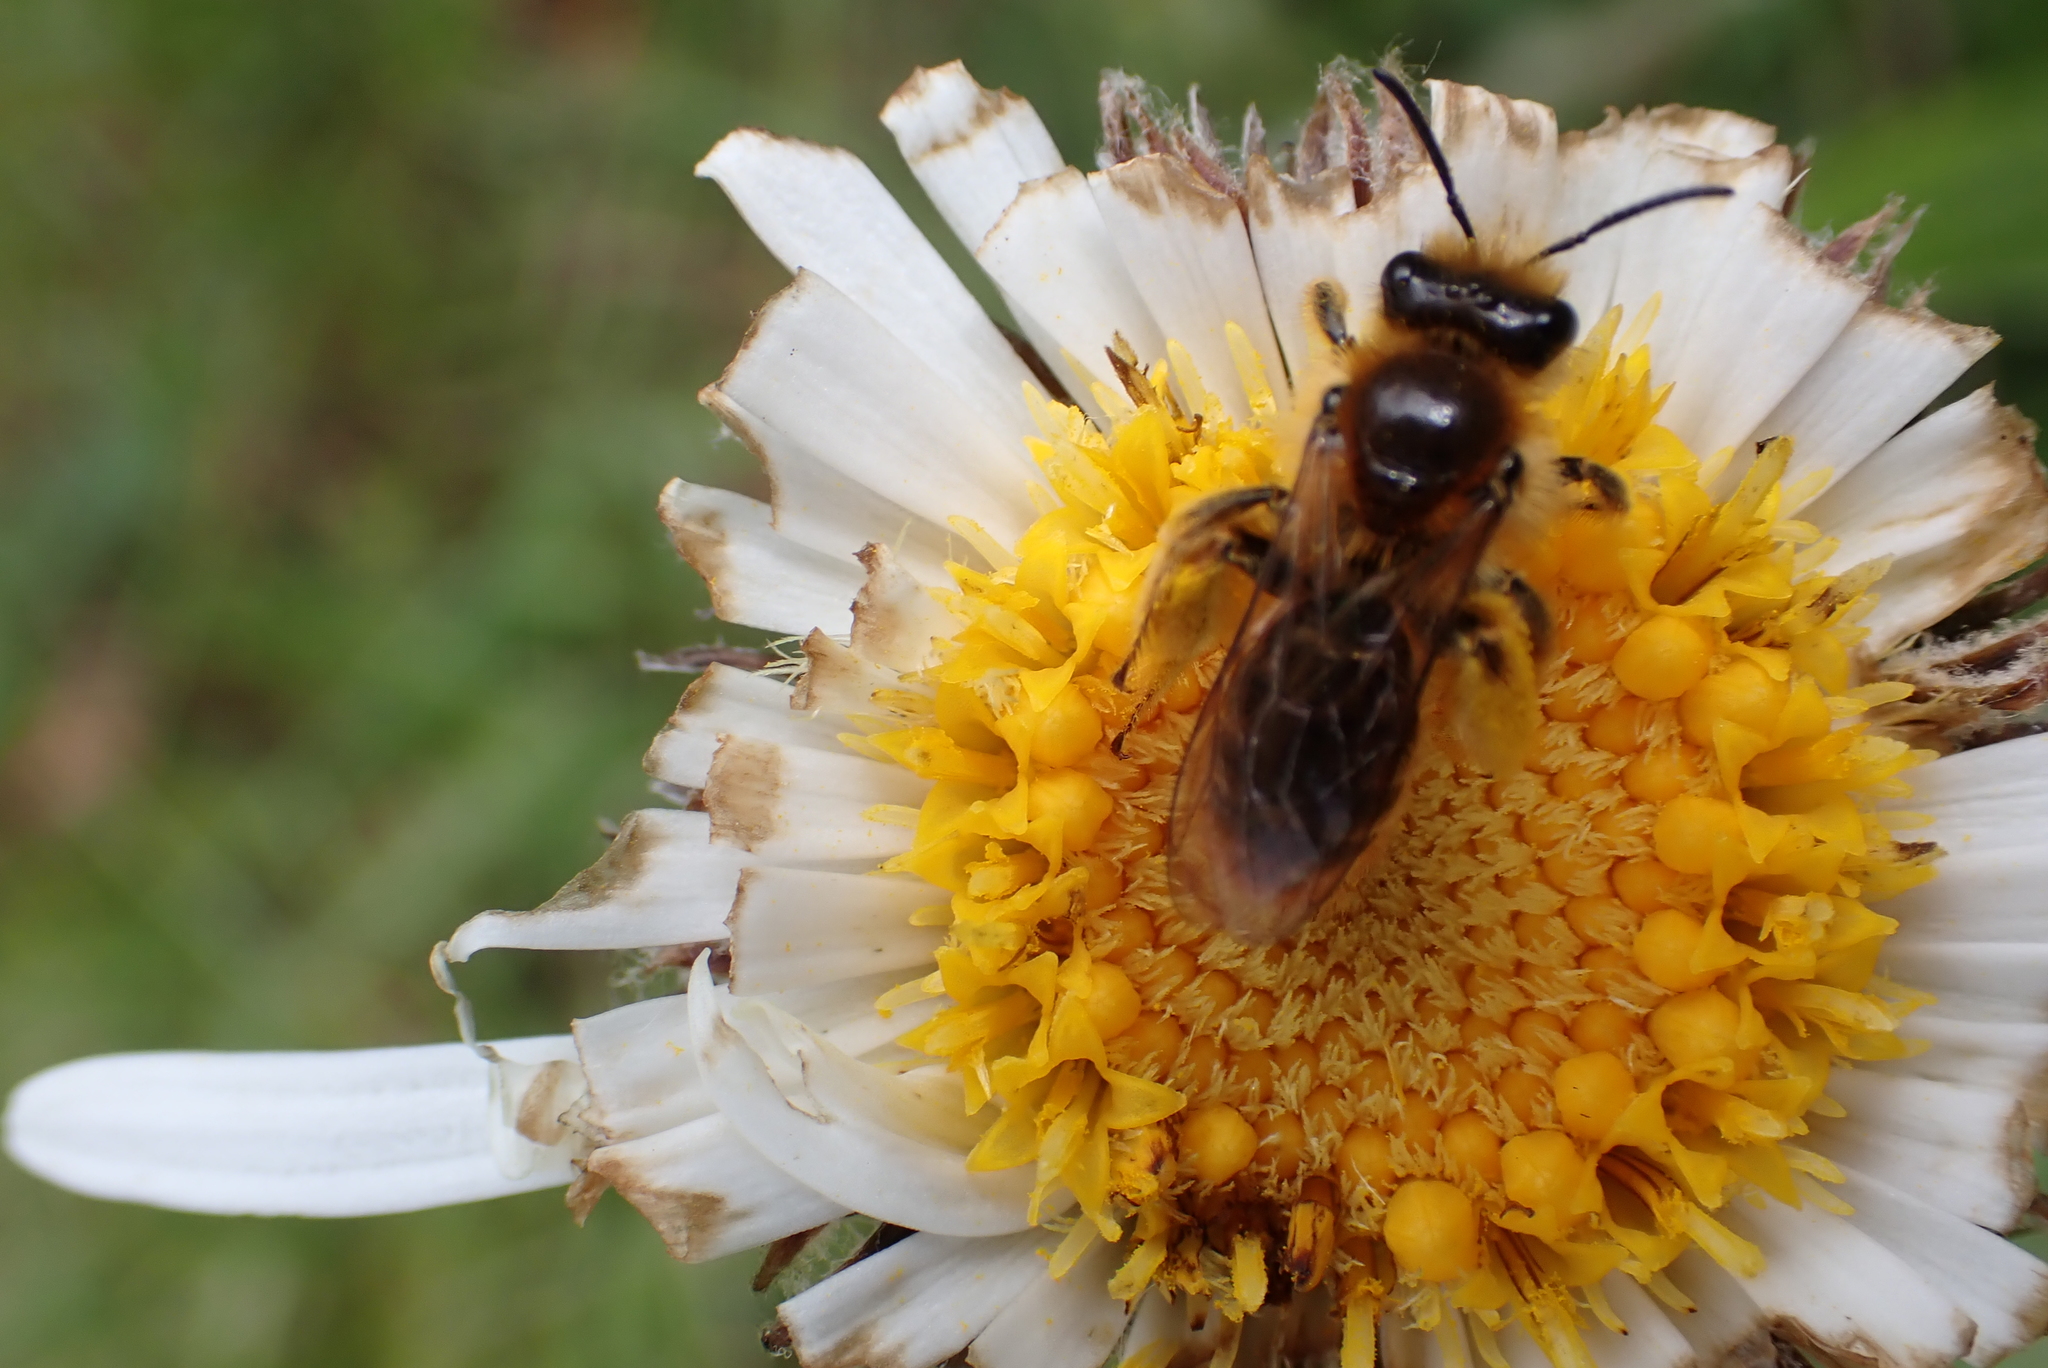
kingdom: Animalia
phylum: Arthropoda
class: Insecta
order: Hymenoptera
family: Colletidae
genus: Leioproctus
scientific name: Leioproctus fulvescens
